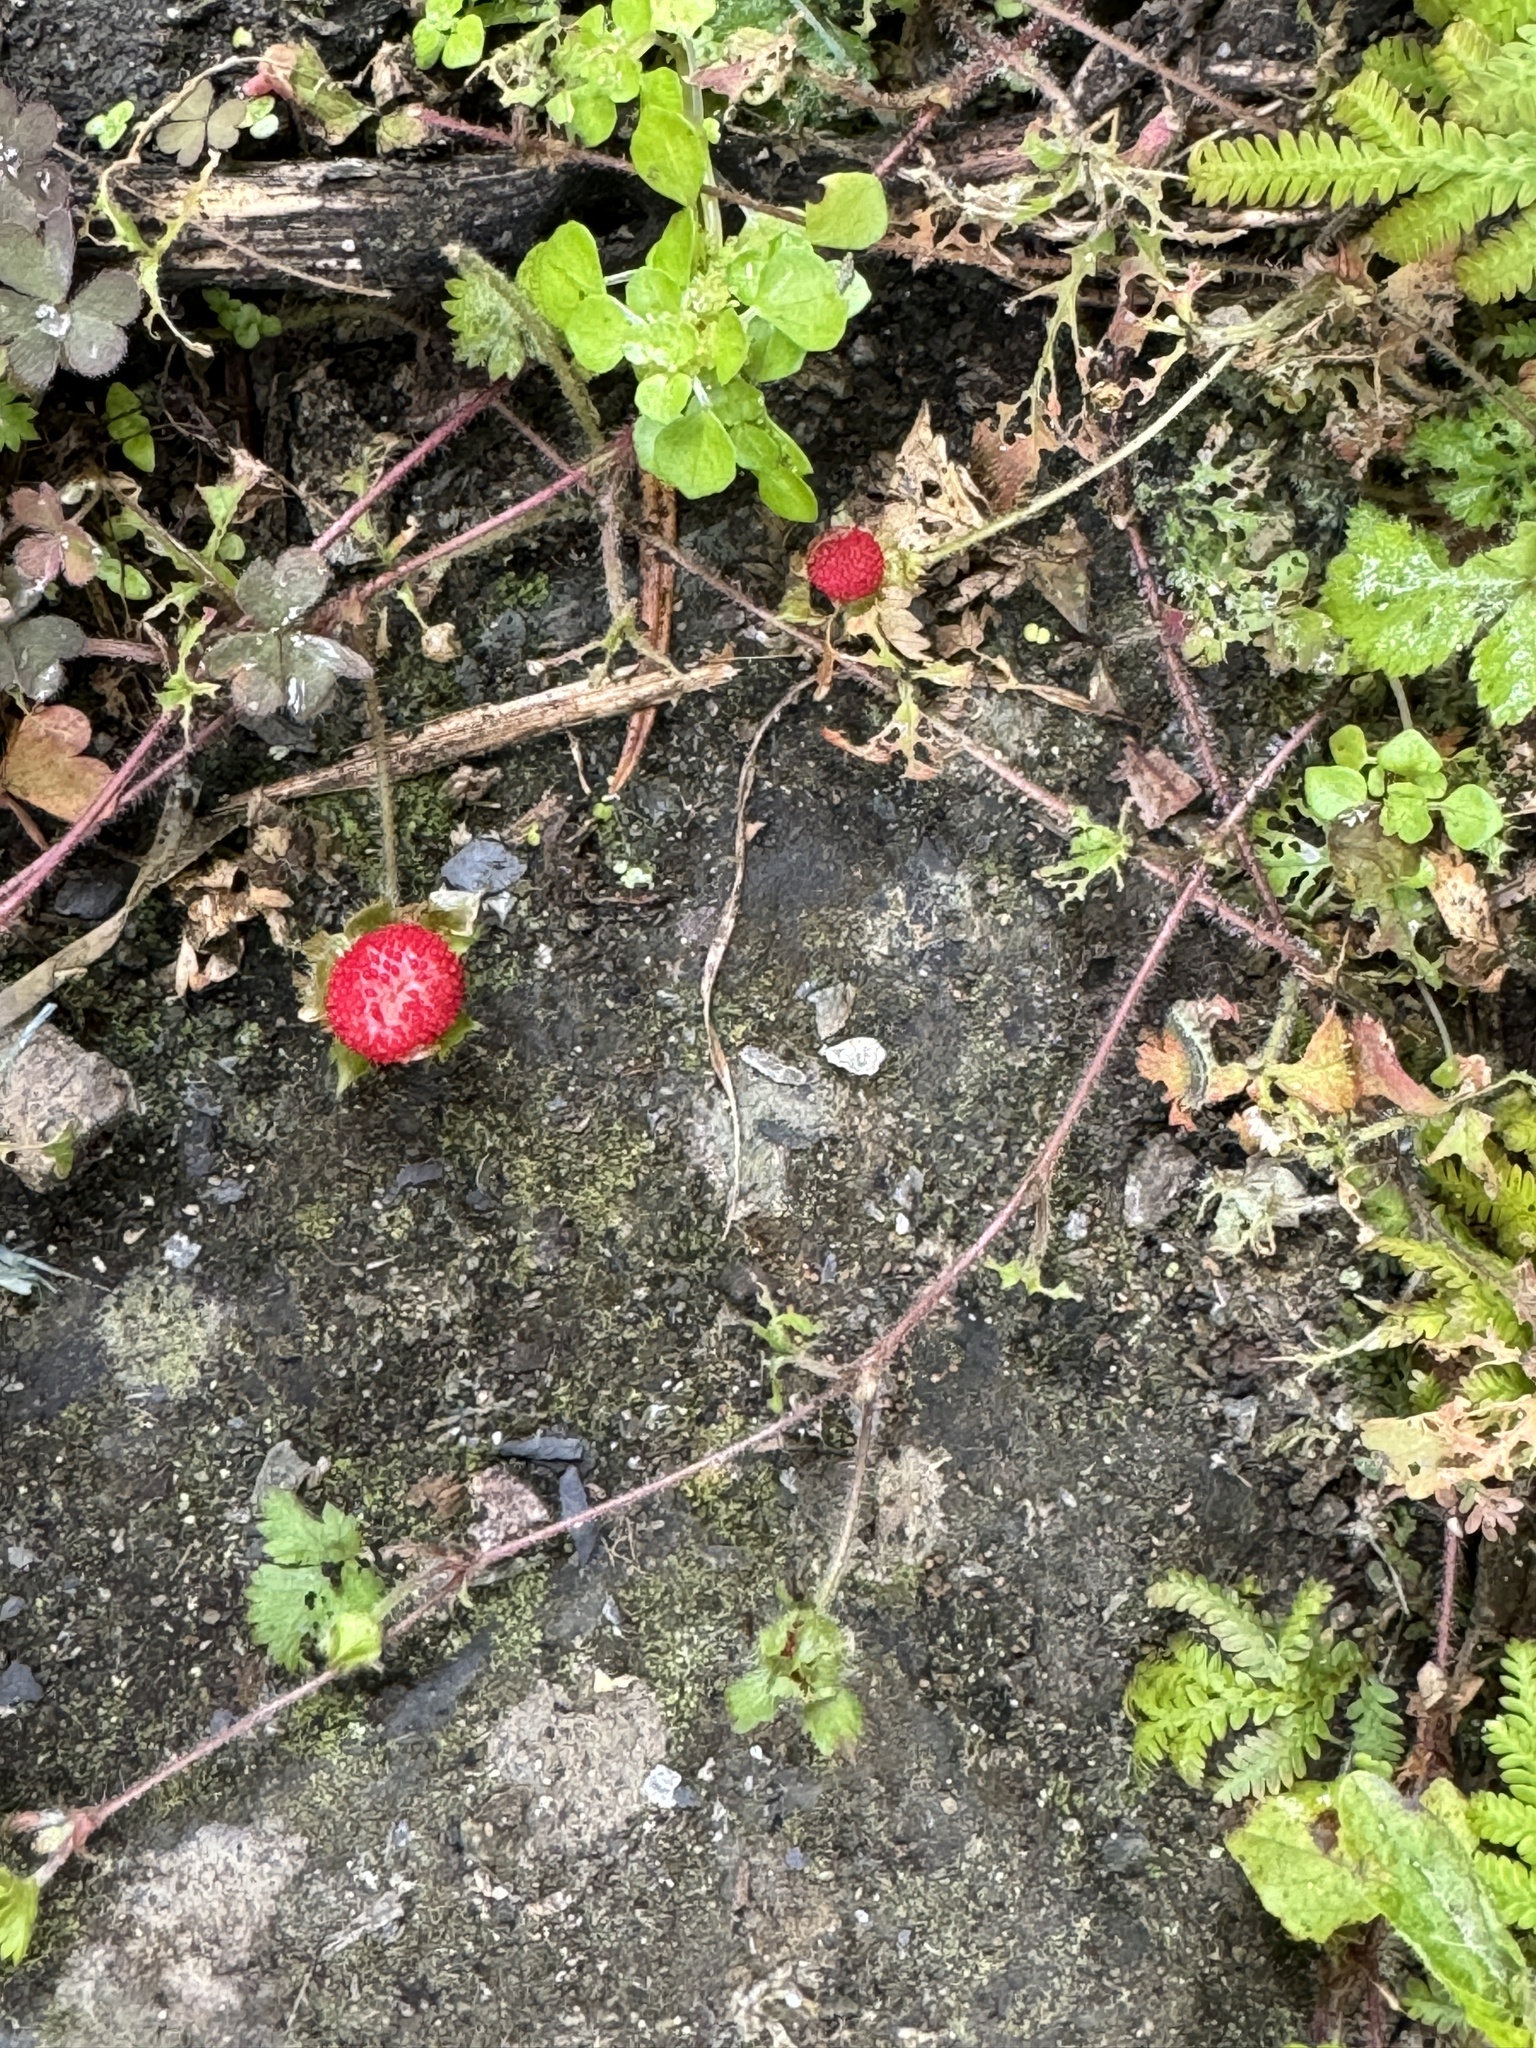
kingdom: Plantae
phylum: Tracheophyta
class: Magnoliopsida
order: Rosales
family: Rosaceae
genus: Potentilla
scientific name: Potentilla wallichiana
